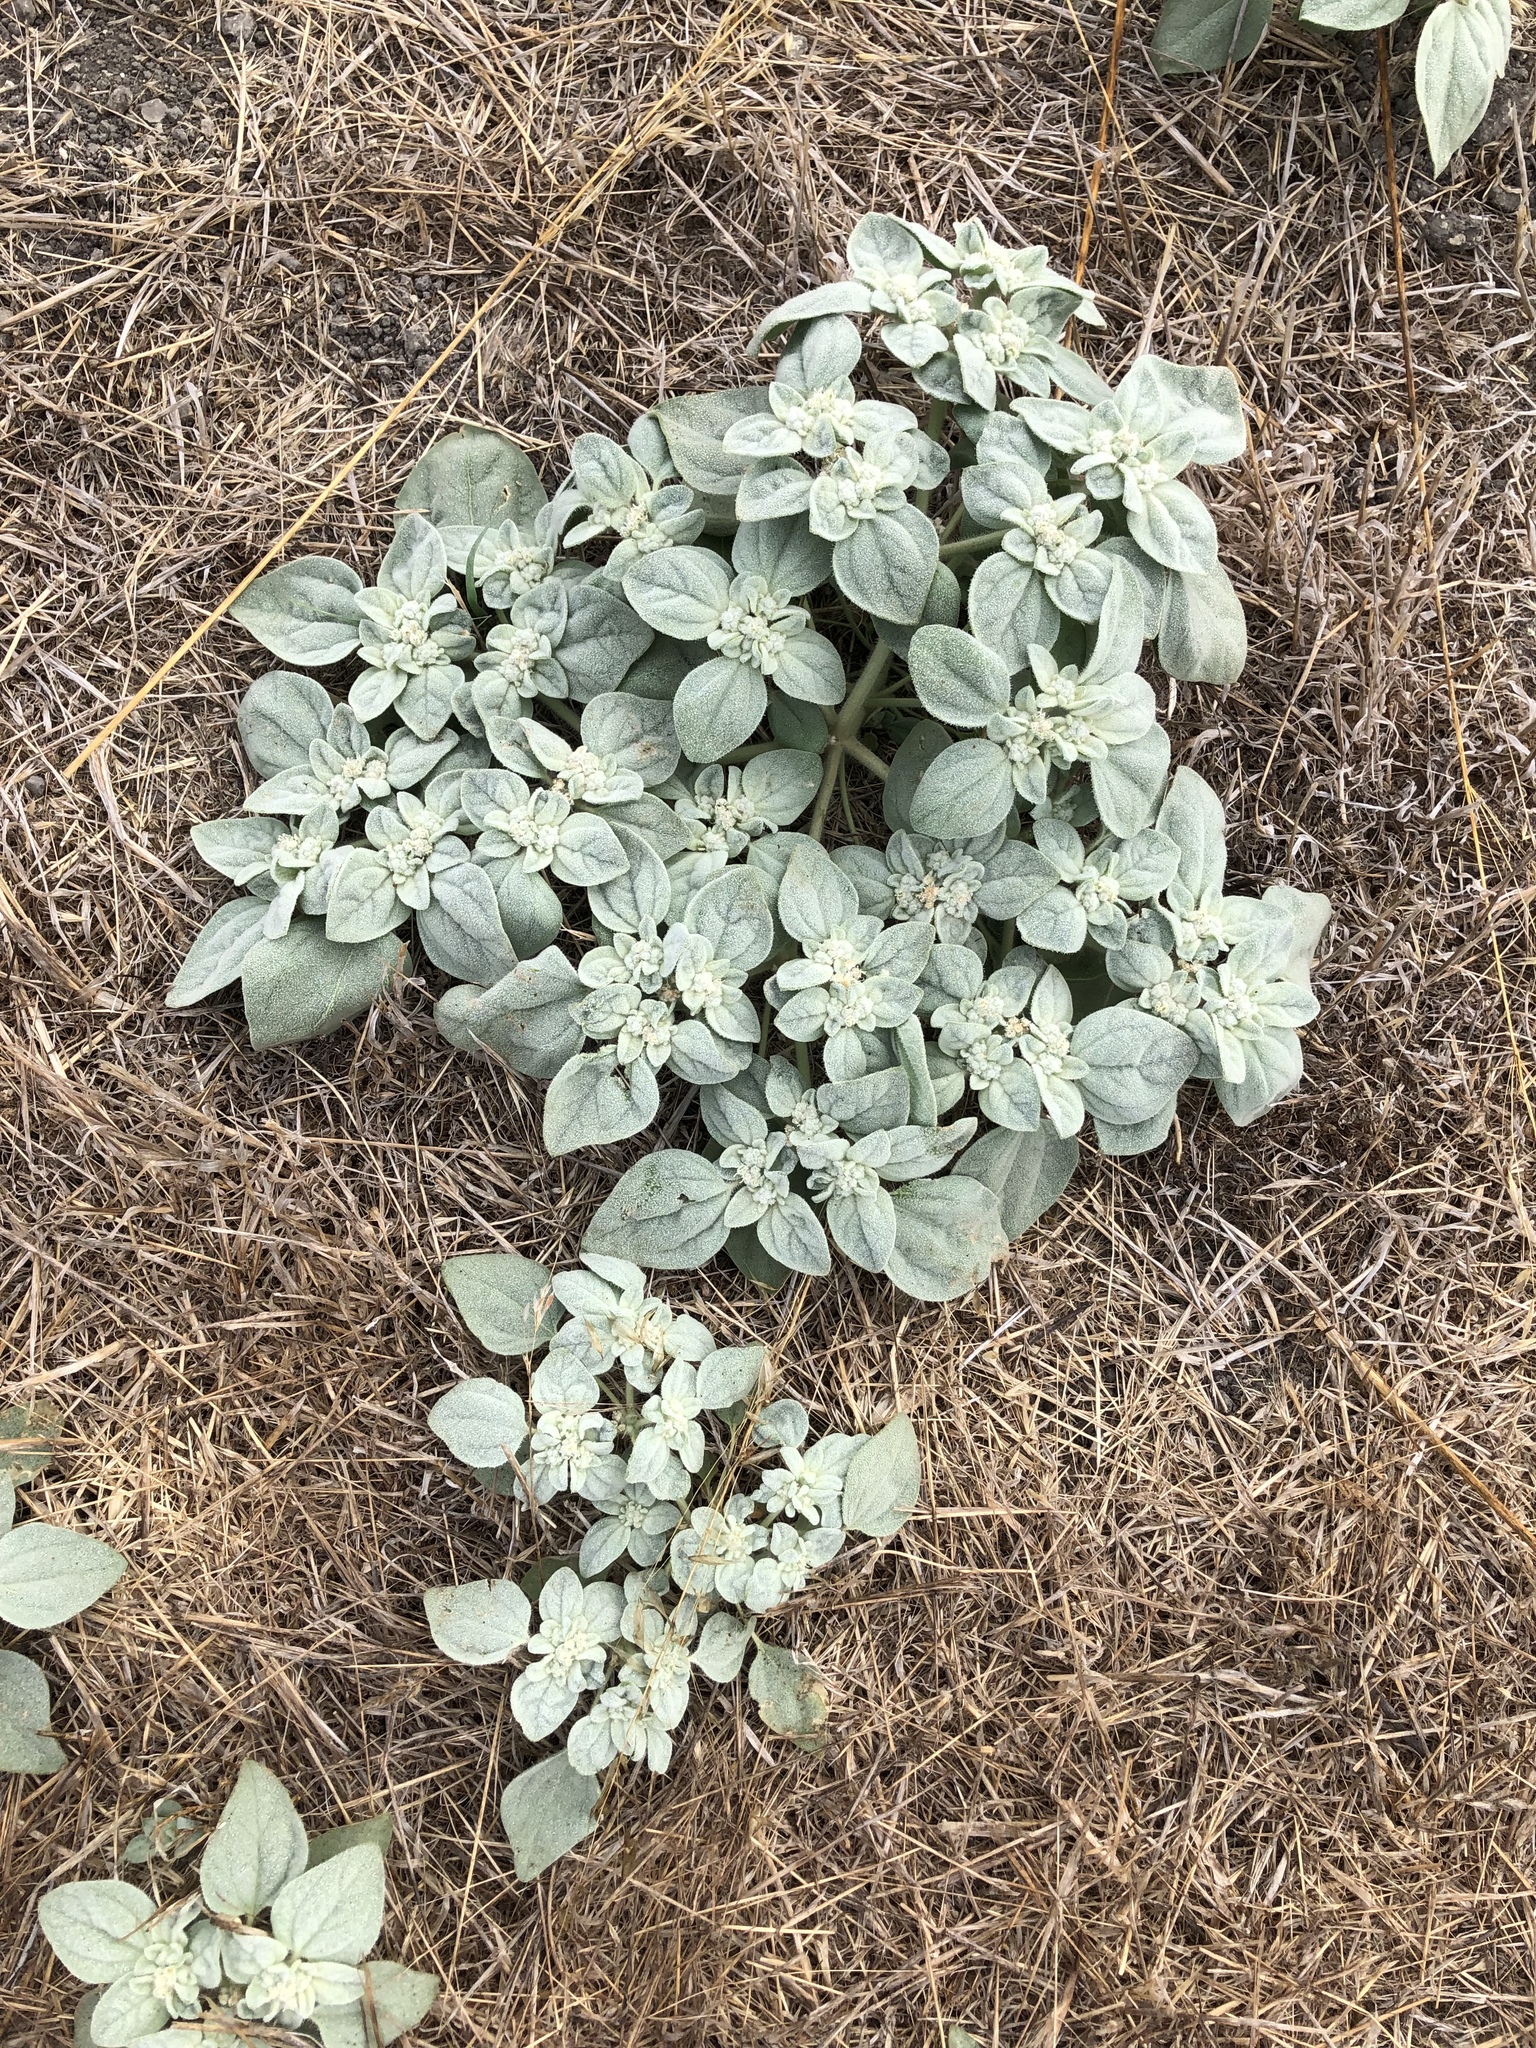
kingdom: Plantae
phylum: Tracheophyta
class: Magnoliopsida
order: Malpighiales
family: Euphorbiaceae
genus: Croton
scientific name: Croton setiger
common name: Dove weed
